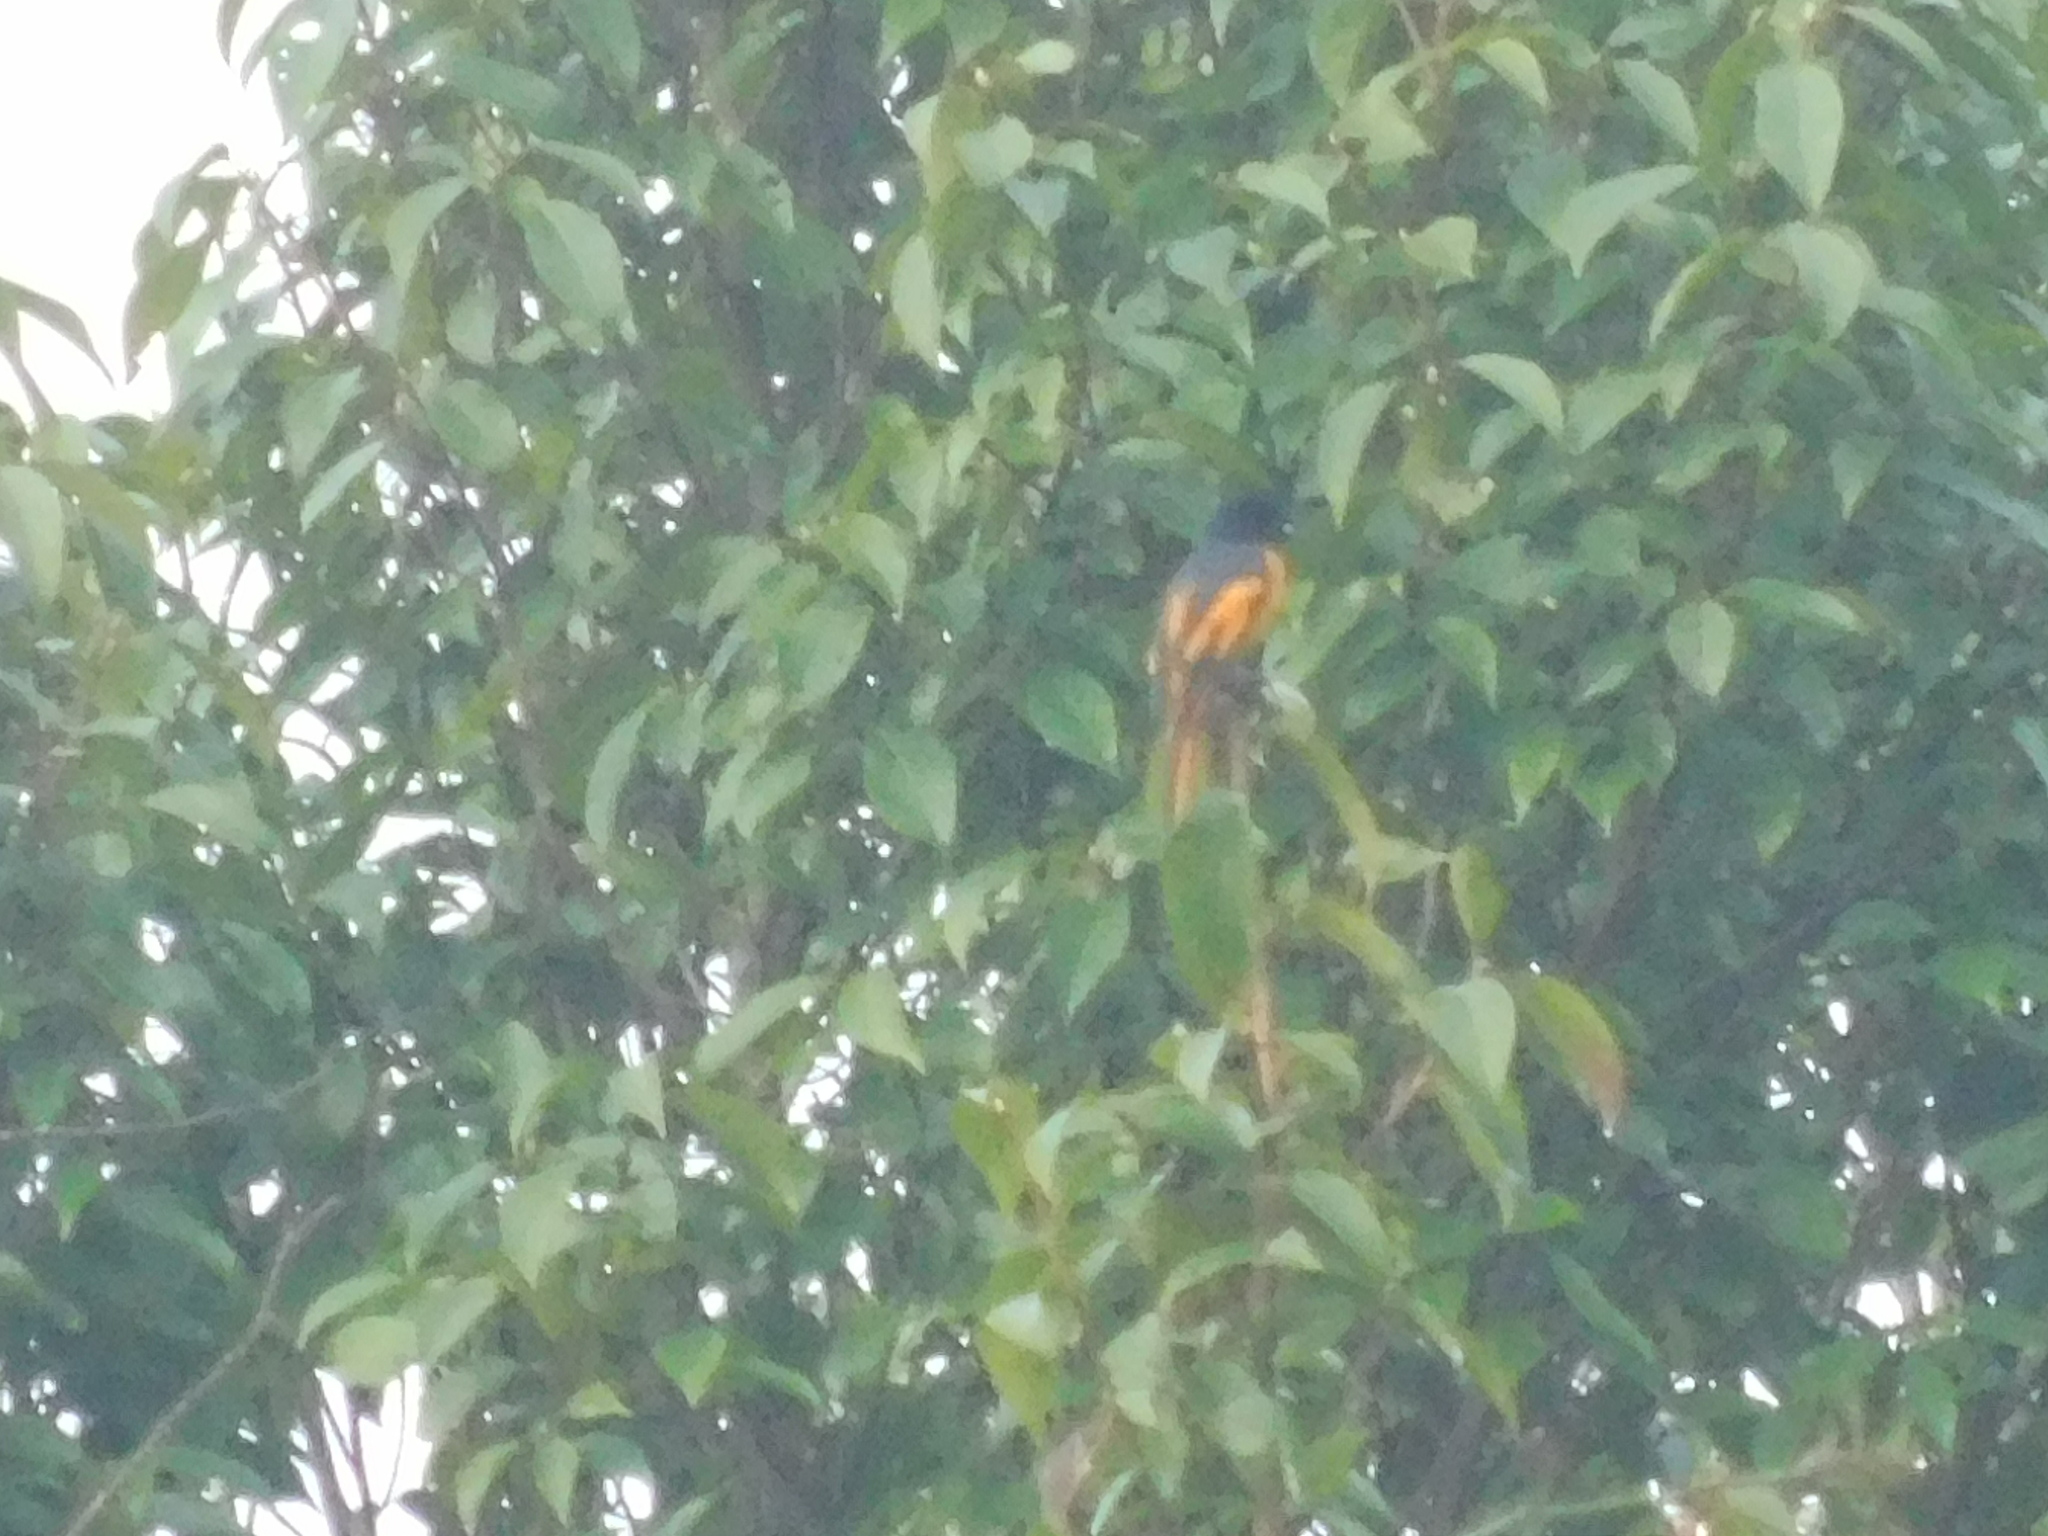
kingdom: Animalia
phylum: Chordata
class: Aves
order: Passeriformes
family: Campephagidae
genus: Pericrocotus
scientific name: Pericrocotus speciosus
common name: Scarlet minivet
